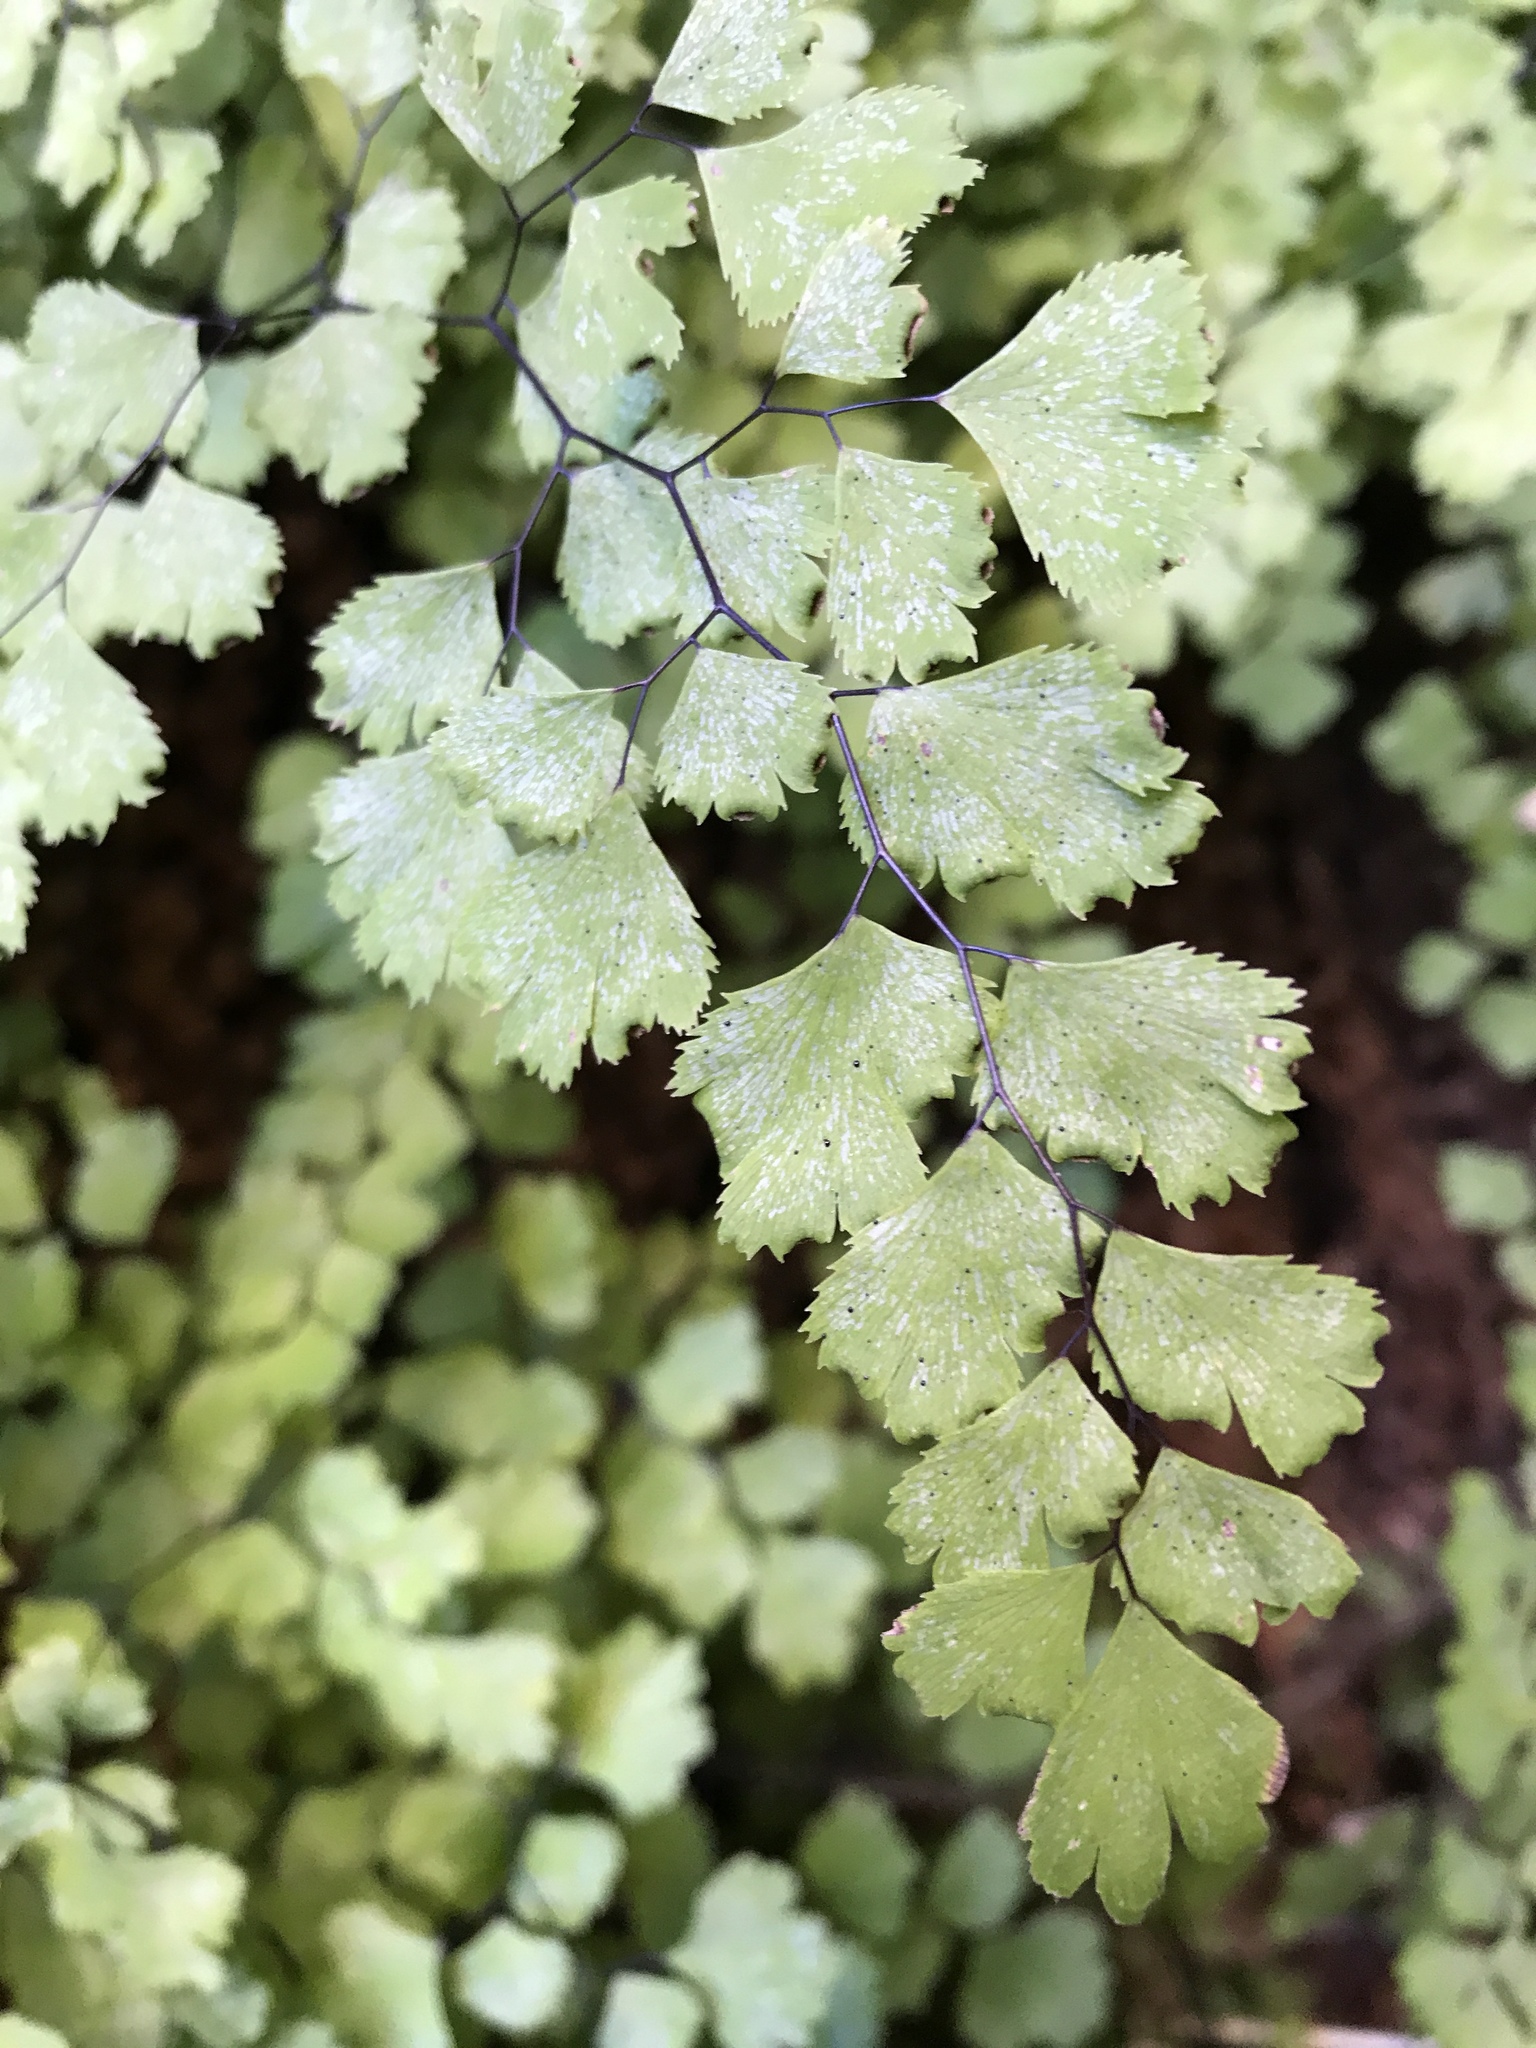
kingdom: Plantae
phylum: Tracheophyta
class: Polypodiopsida
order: Polypodiales
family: Pteridaceae
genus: Adiantum
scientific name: Adiantum capillus-veneris
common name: Maidenhair fern
